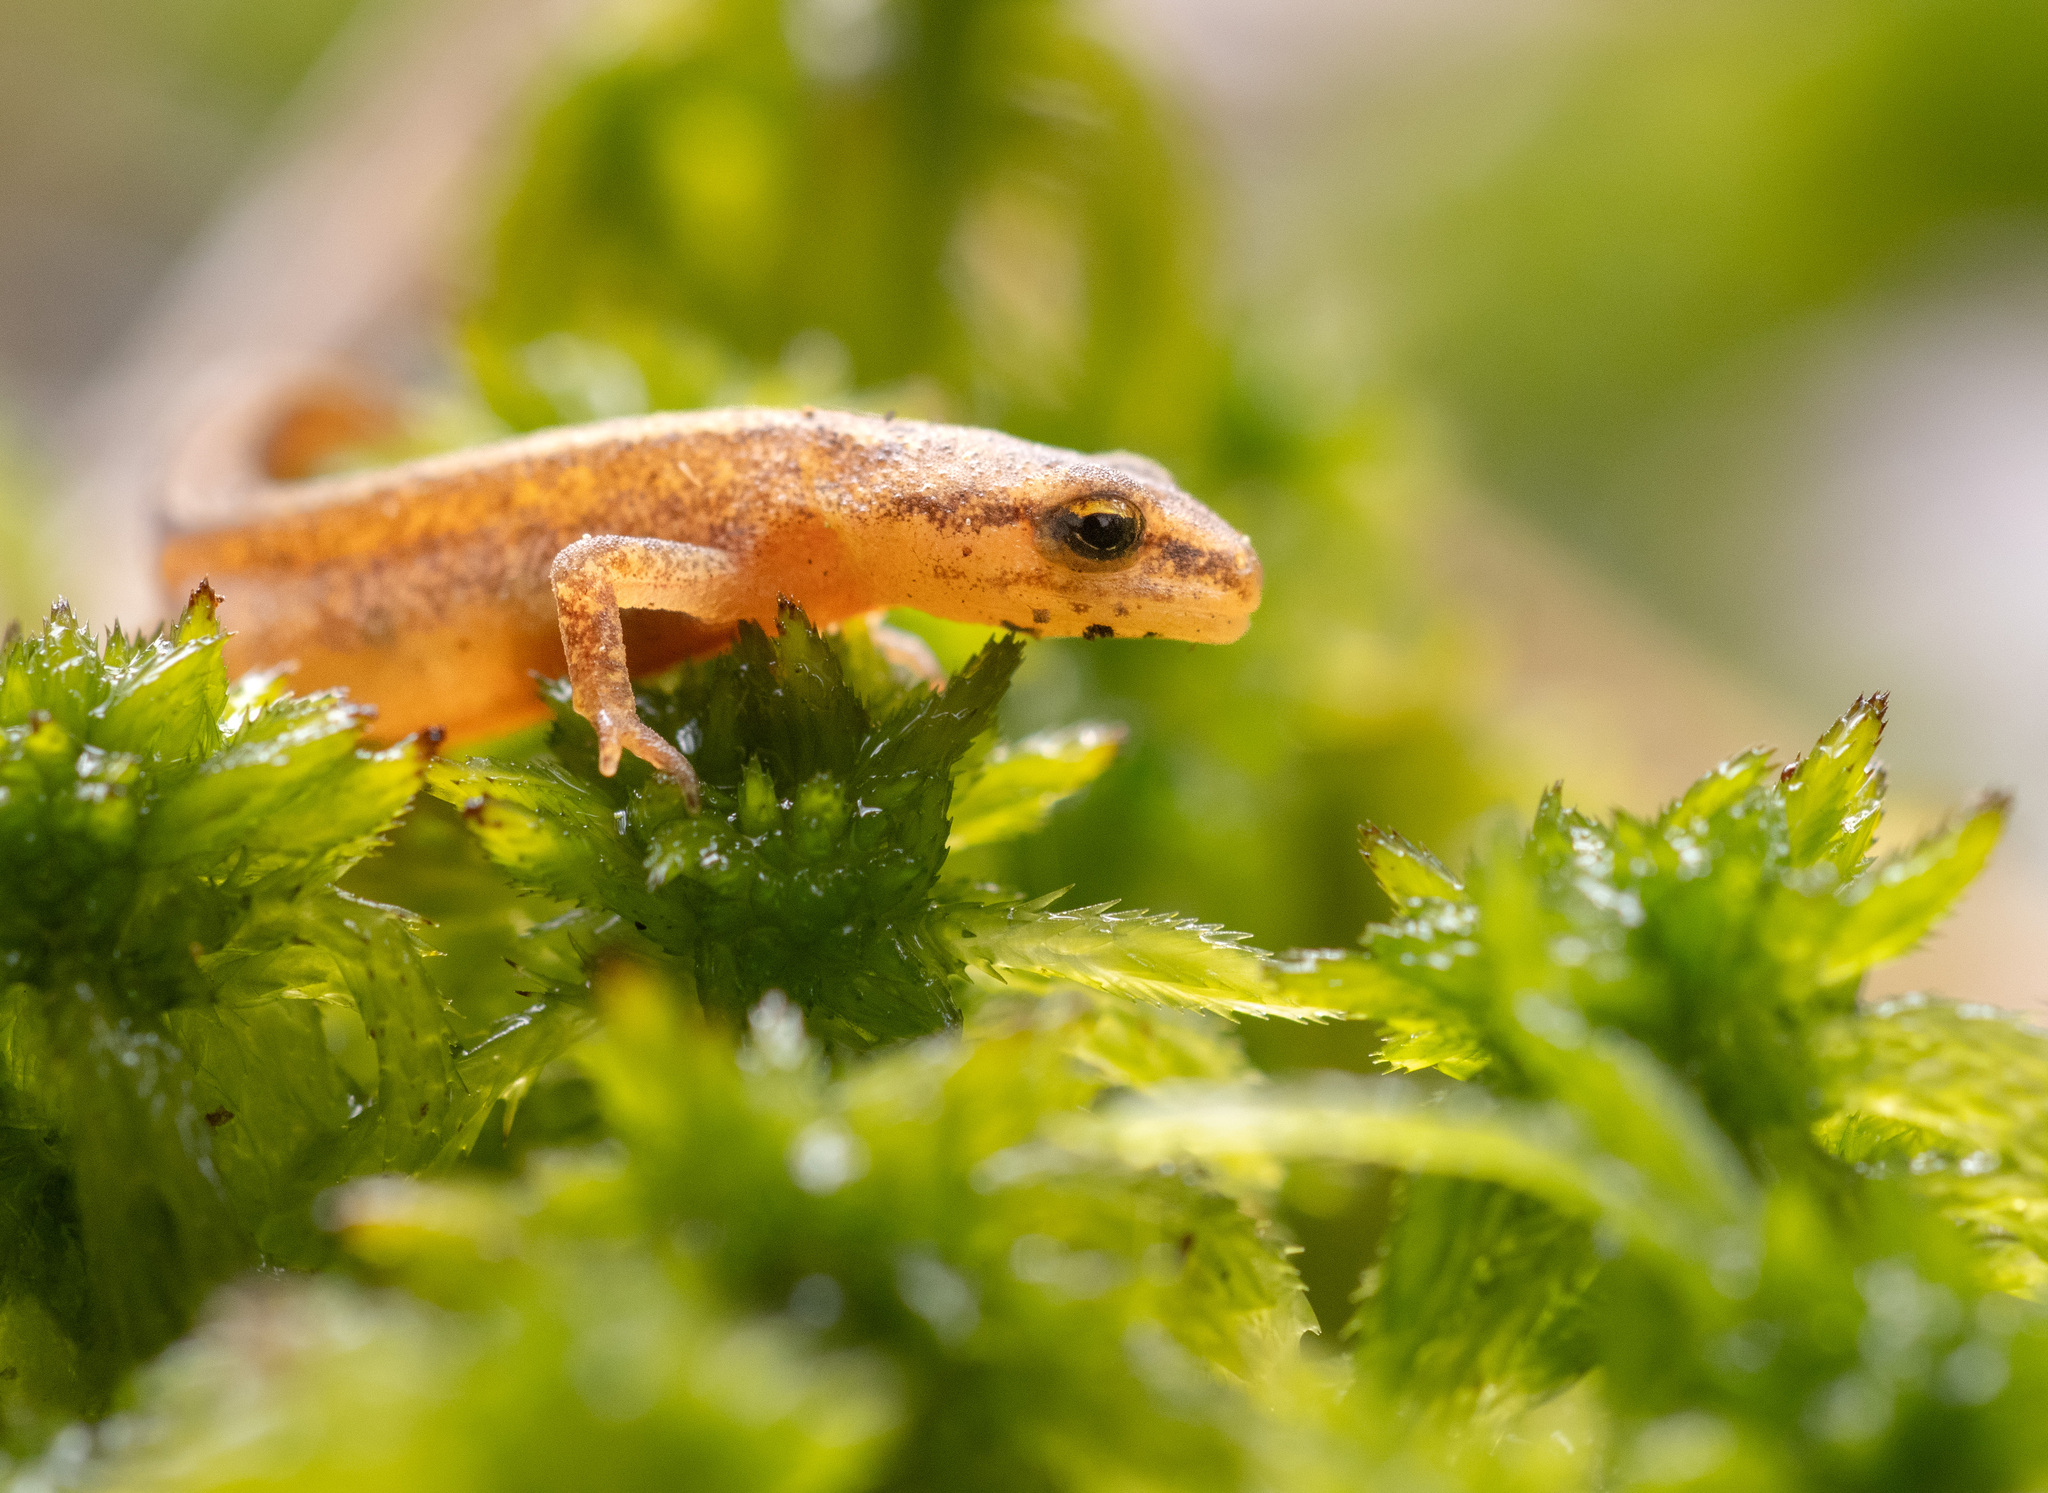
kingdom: Animalia
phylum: Chordata
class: Amphibia
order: Caudata
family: Salamandridae
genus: Lissotriton
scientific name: Lissotriton vulgaris
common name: Smooth newt
